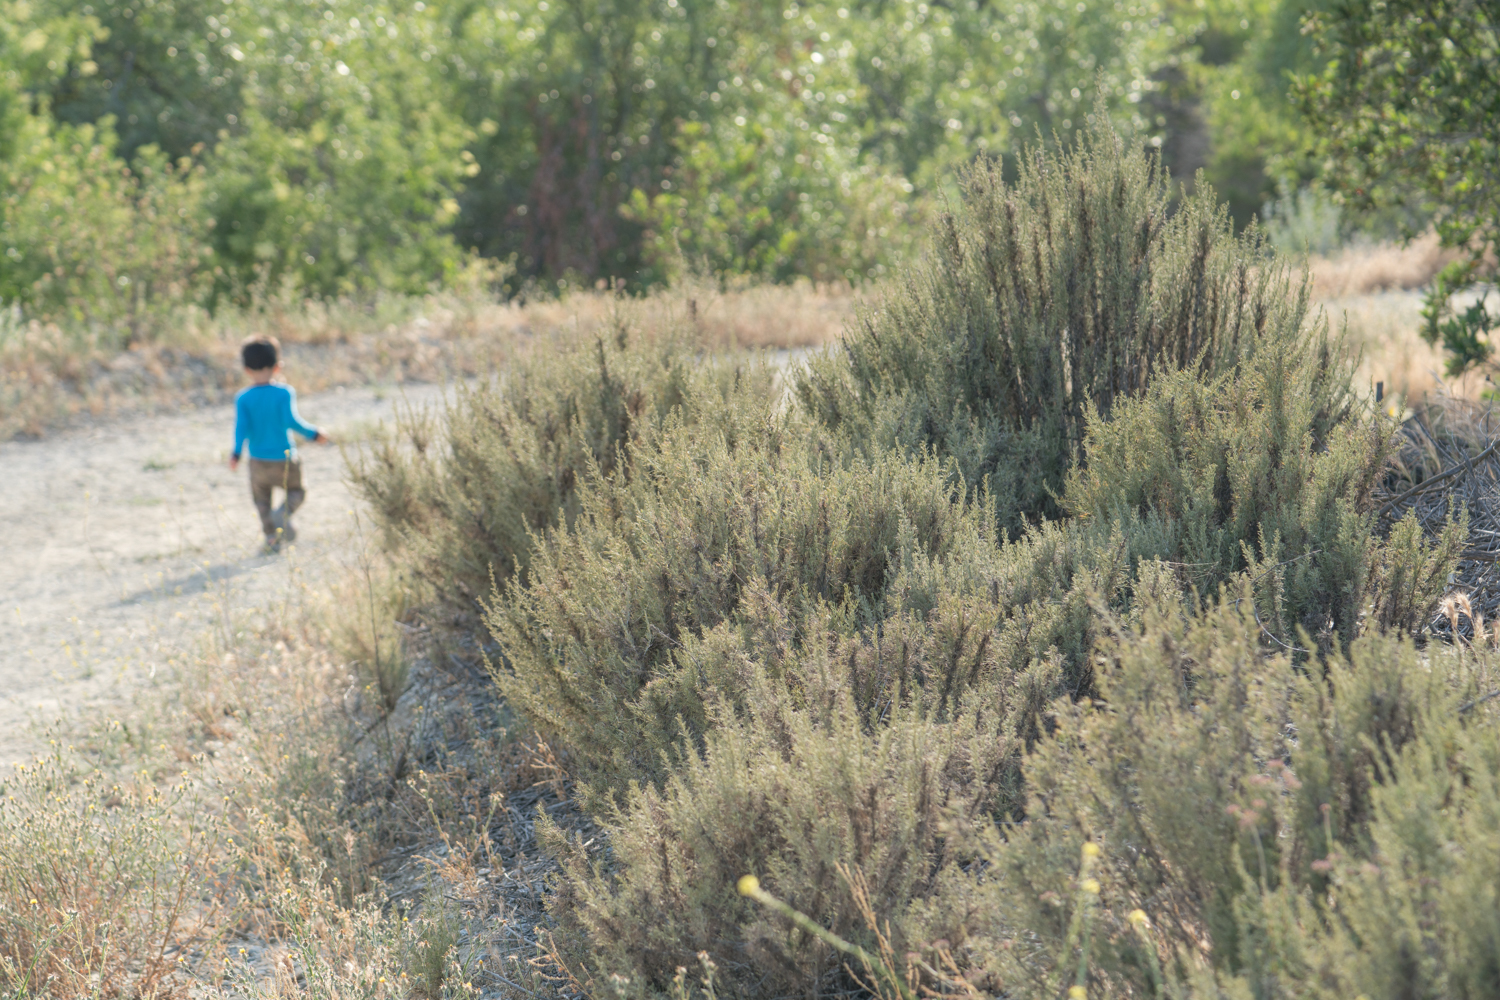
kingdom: Plantae
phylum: Tracheophyta
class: Magnoliopsida
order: Asterales
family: Asteraceae
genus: Artemisia
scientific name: Artemisia californica
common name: California sagebrush
